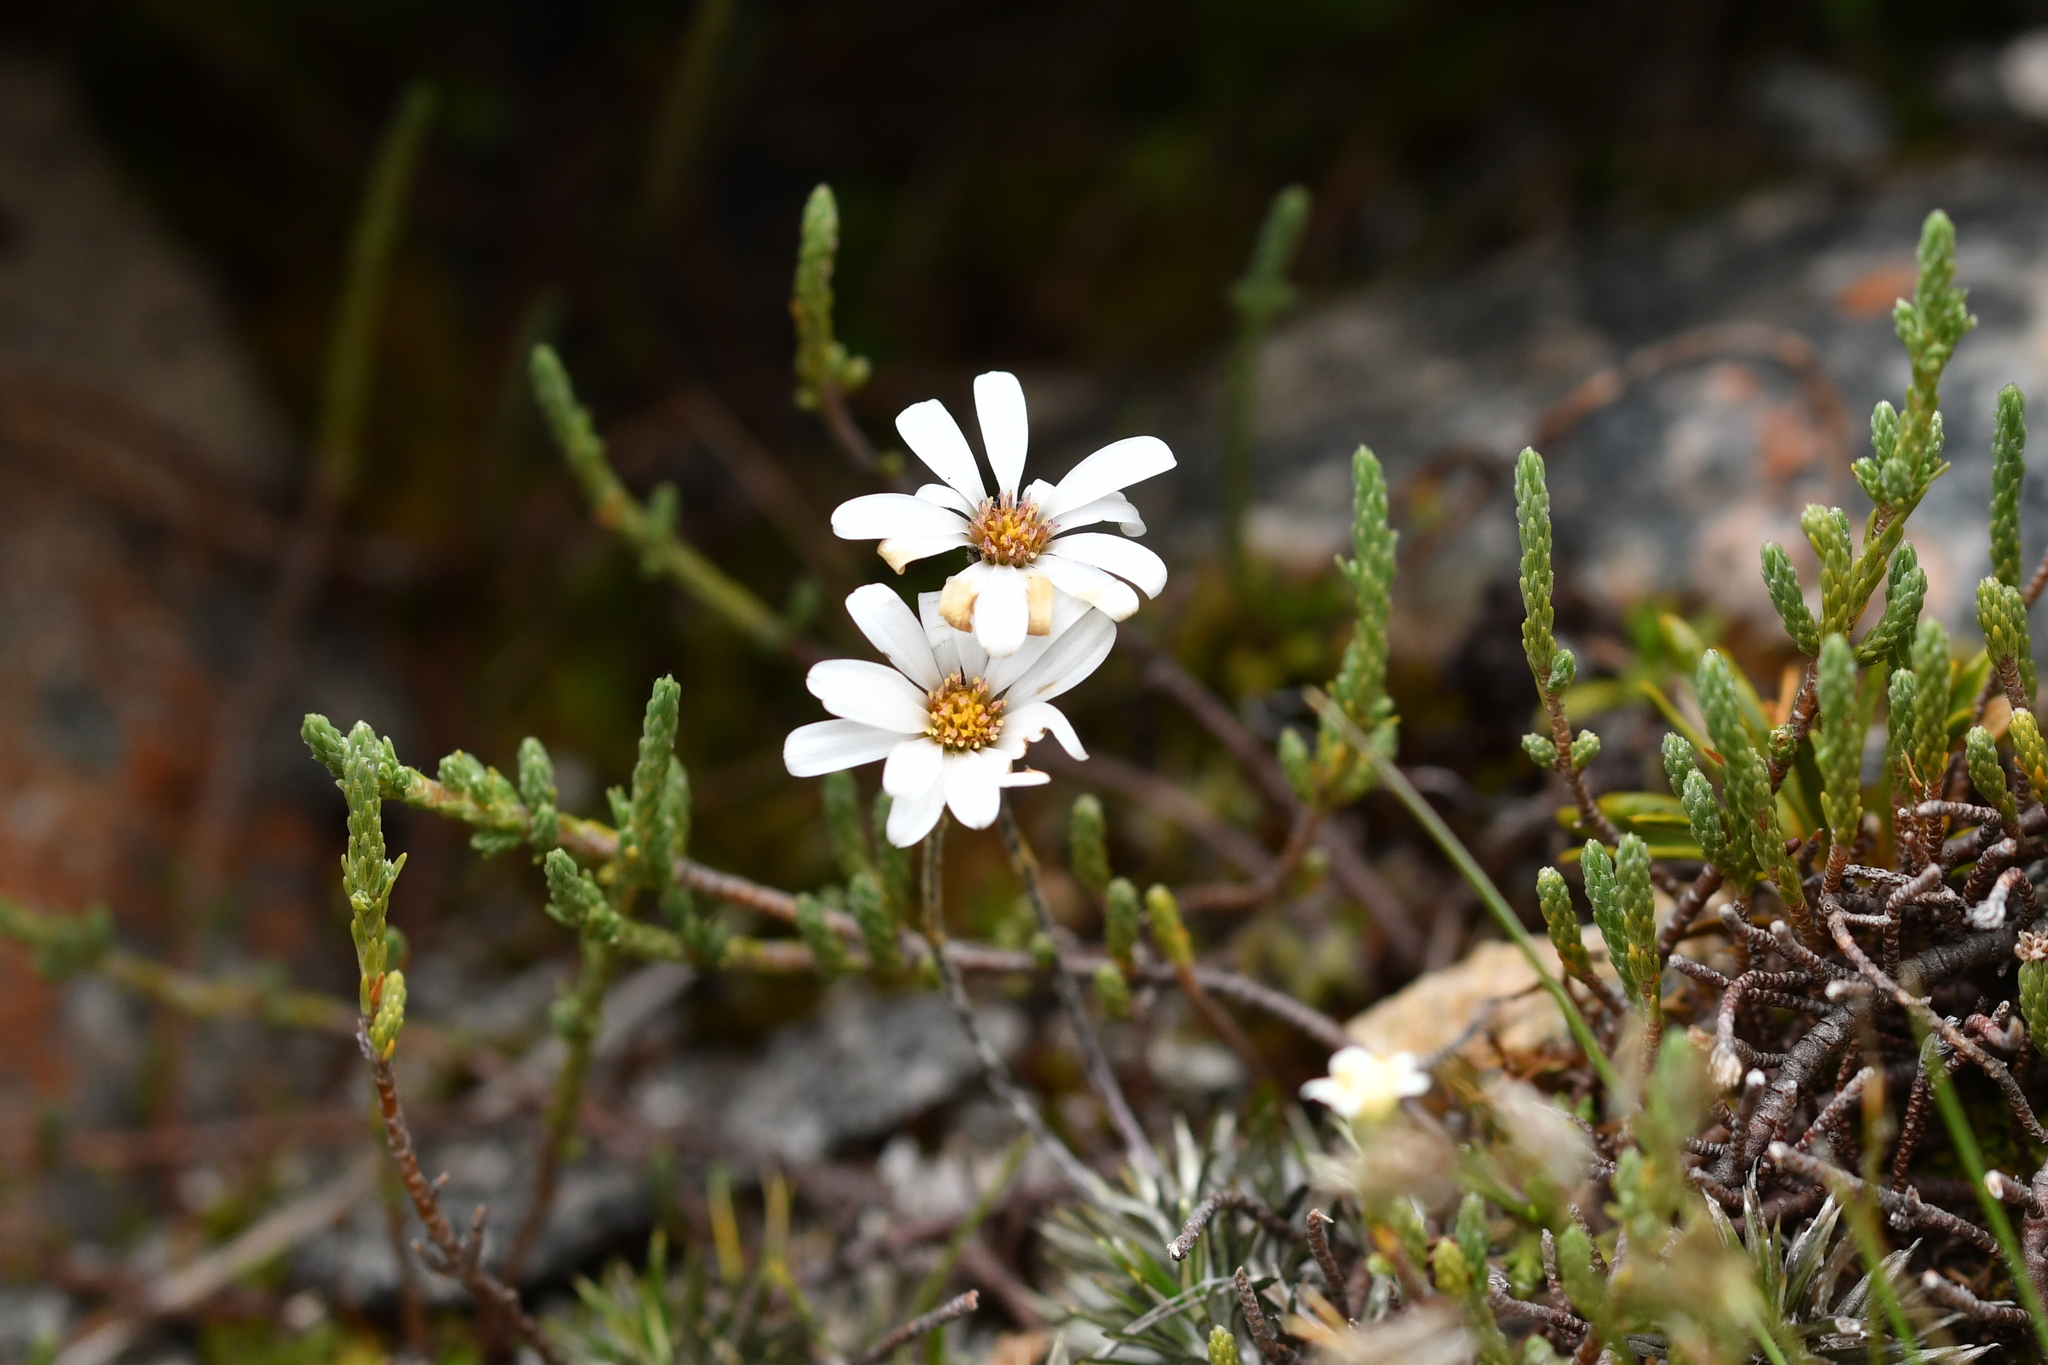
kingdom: Plantae
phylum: Tracheophyta
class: Magnoliopsida
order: Asterales
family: Asteraceae
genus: Celmisia
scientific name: Celmisia laricifolia
